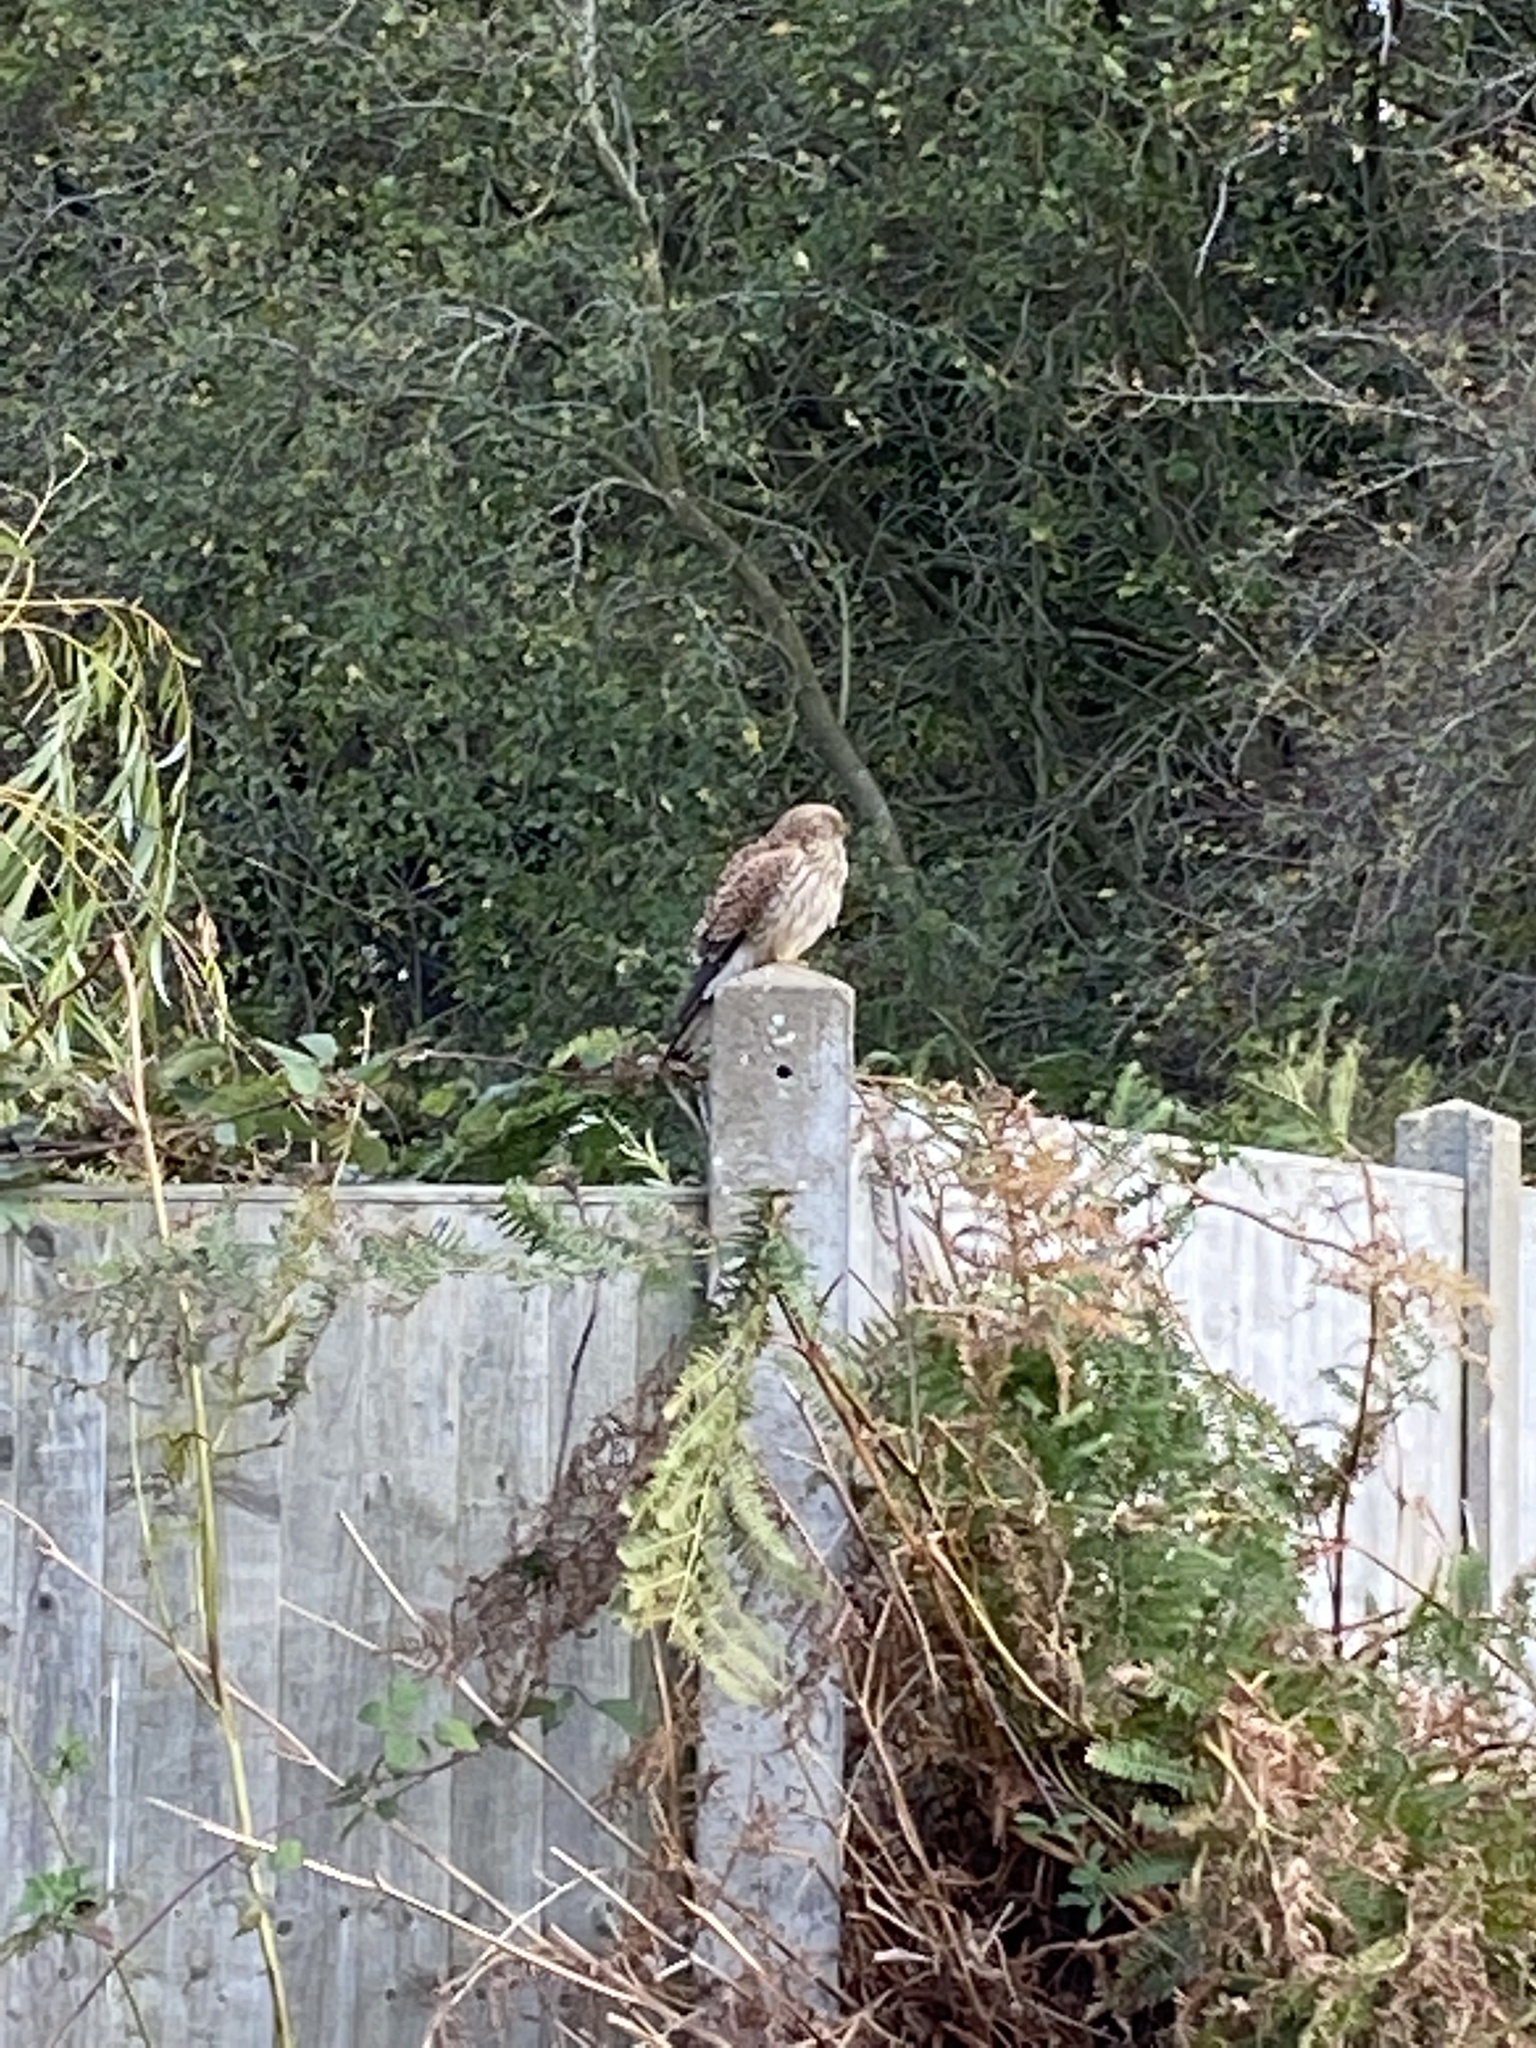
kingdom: Animalia
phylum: Chordata
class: Aves
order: Falconiformes
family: Falconidae
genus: Falco
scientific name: Falco tinnunculus
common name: Common kestrel
